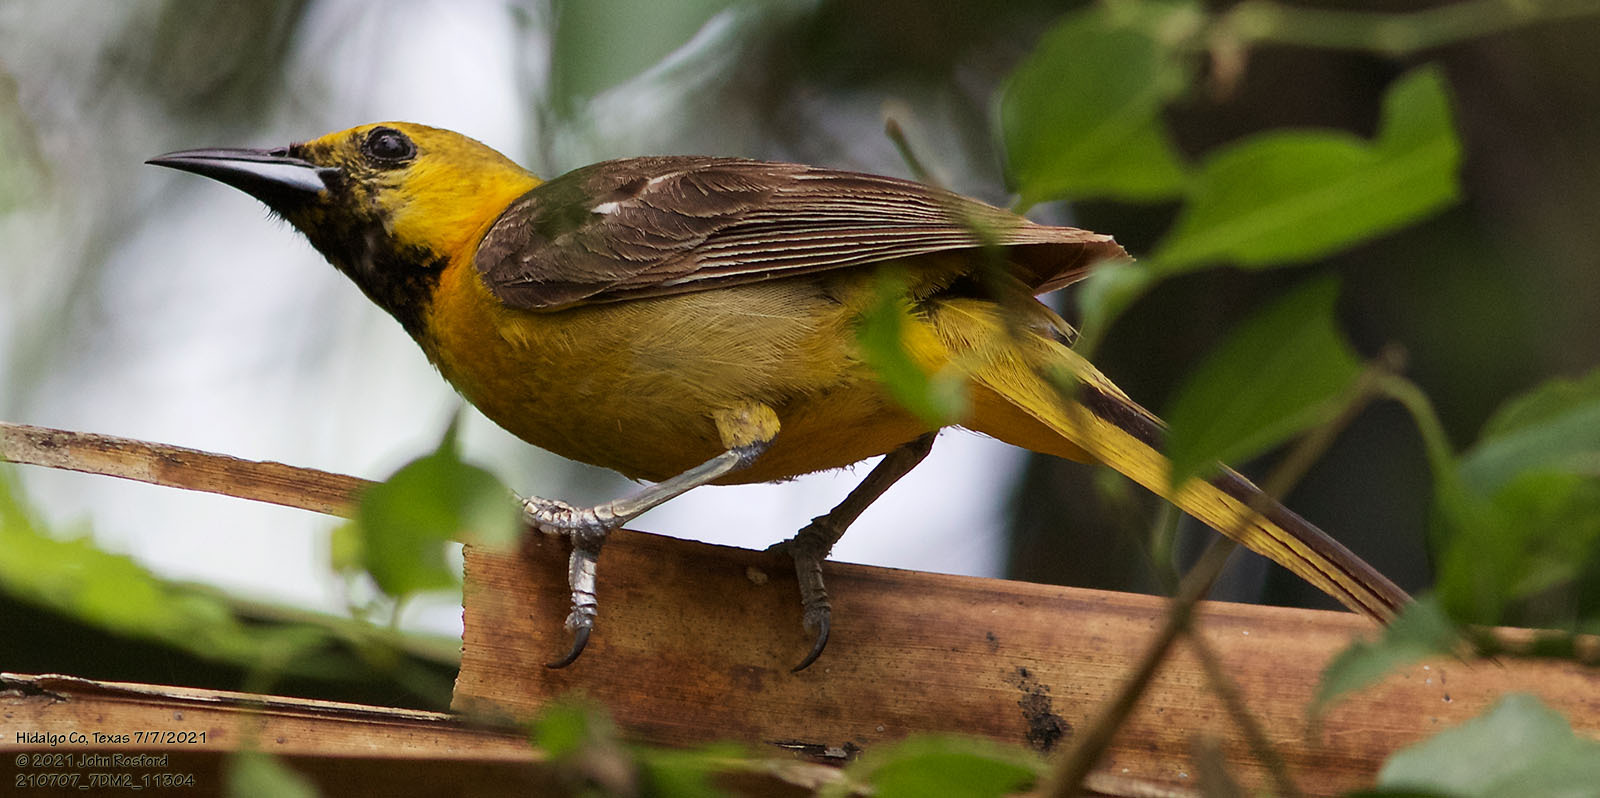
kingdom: Animalia
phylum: Chordata
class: Aves
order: Passeriformes
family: Icteridae
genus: Icterus
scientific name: Icterus cucullatus
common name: Hooded oriole
